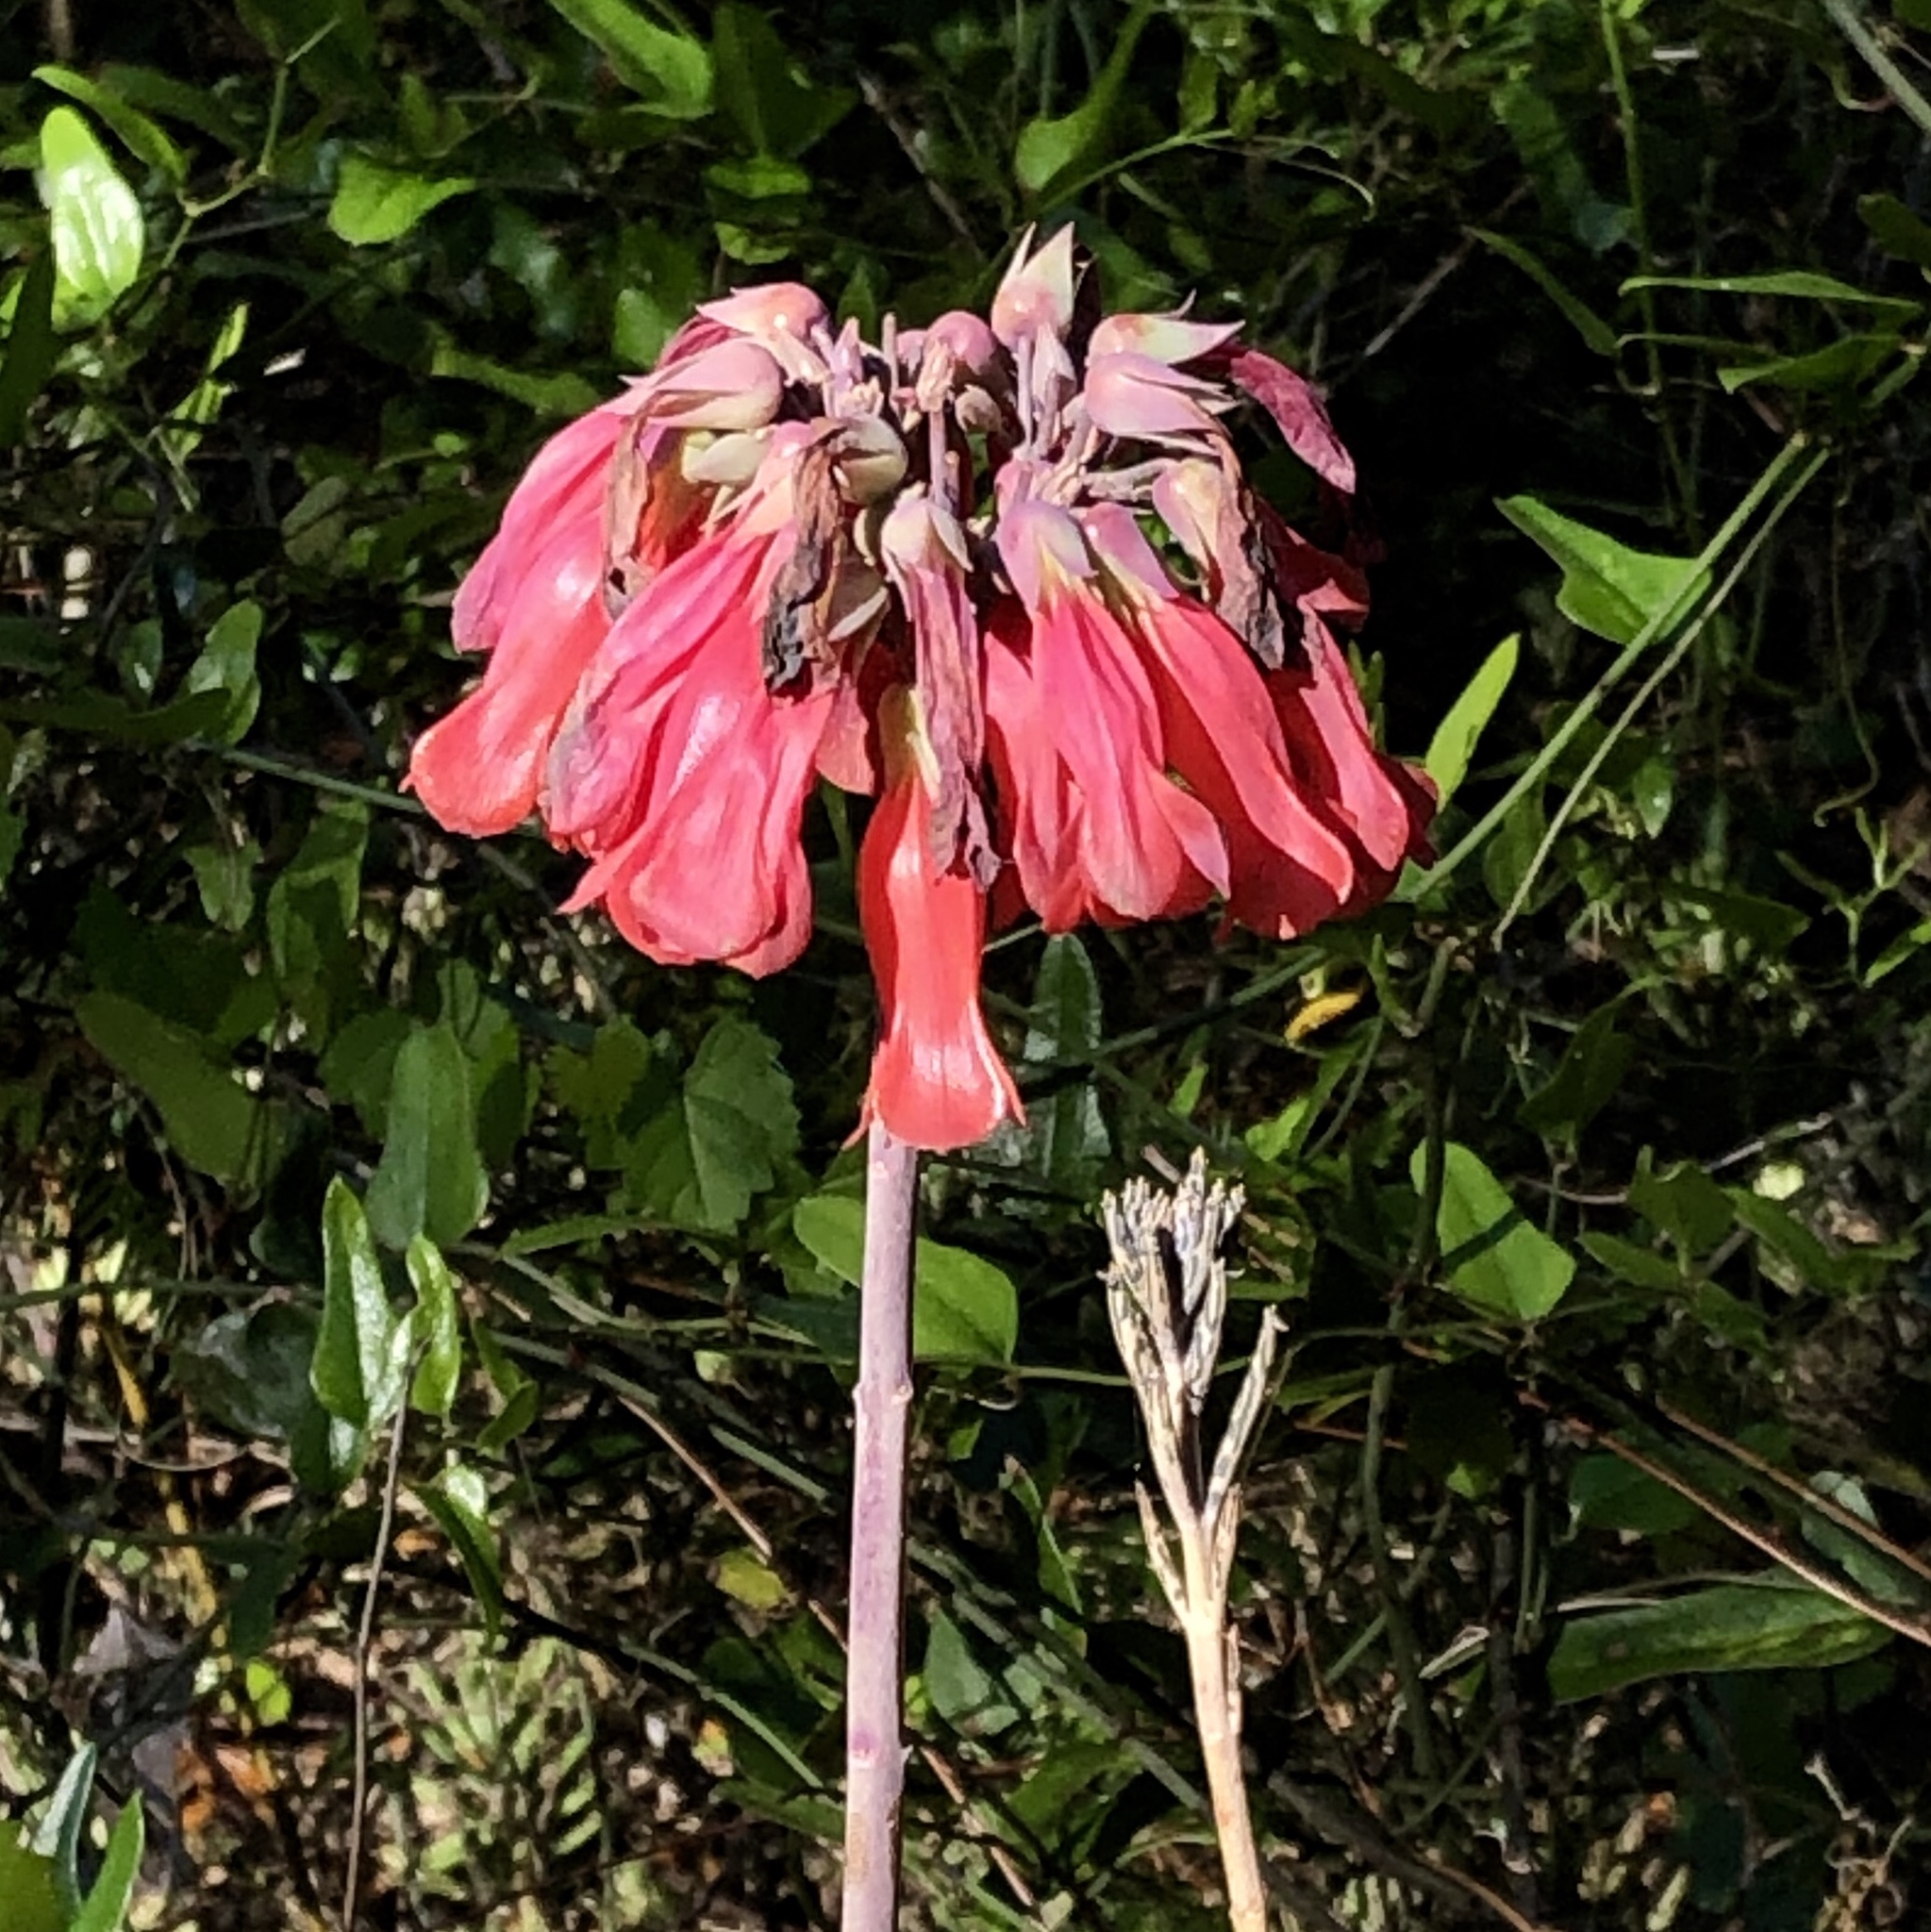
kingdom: Plantae
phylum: Tracheophyta
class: Magnoliopsida
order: Saxifragales
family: Crassulaceae
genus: Kalanchoe
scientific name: Kalanchoe delagoensis
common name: Chandelier plant
